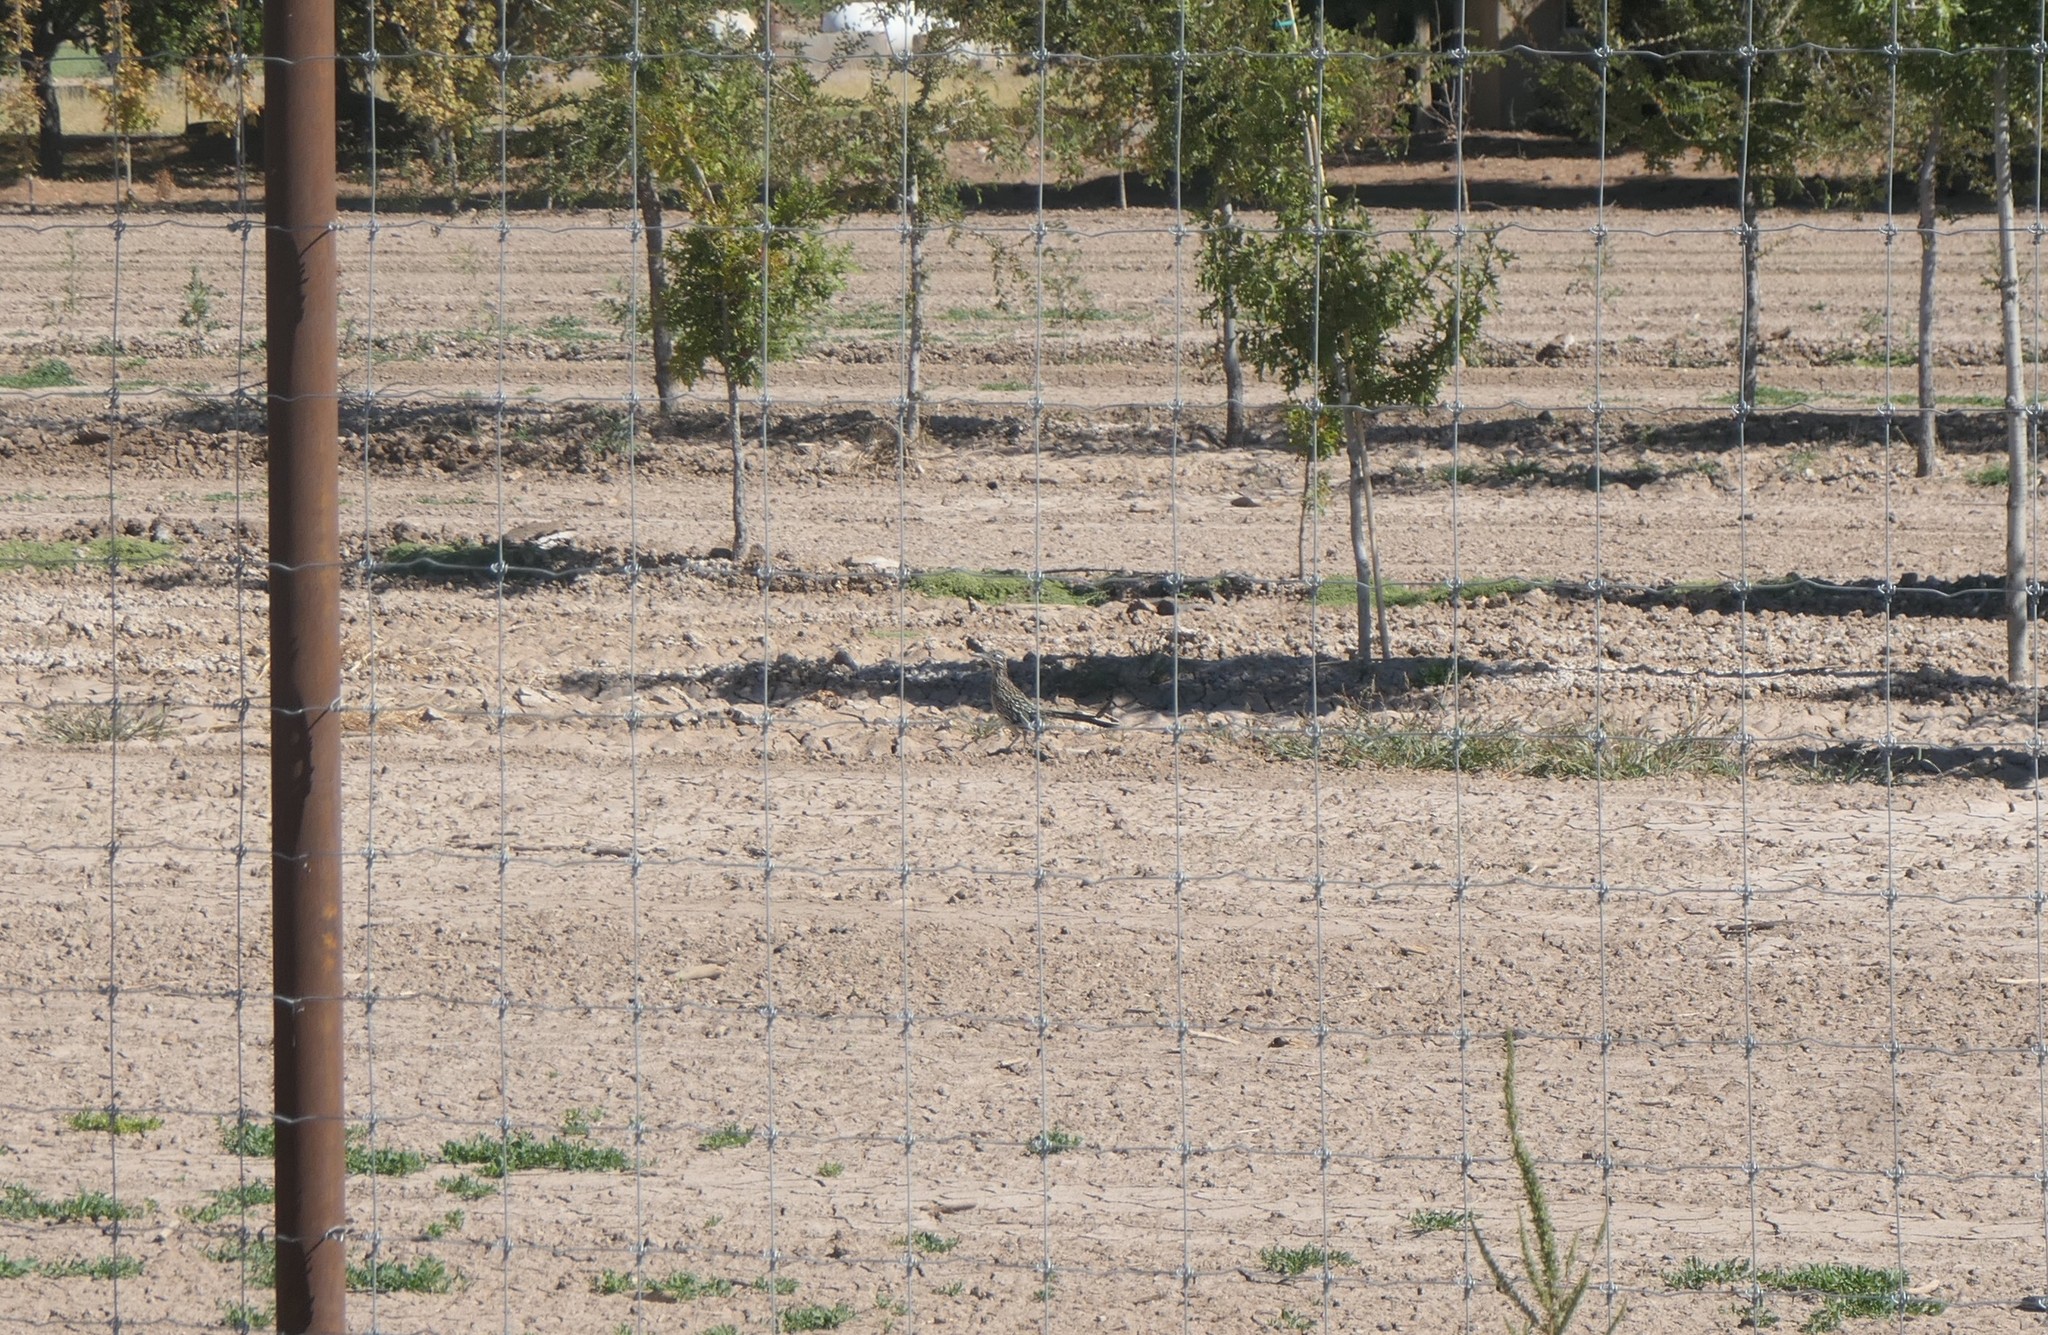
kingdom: Animalia
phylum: Chordata
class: Aves
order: Cuculiformes
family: Cuculidae
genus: Geococcyx
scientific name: Geococcyx californianus
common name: Greater roadrunner
